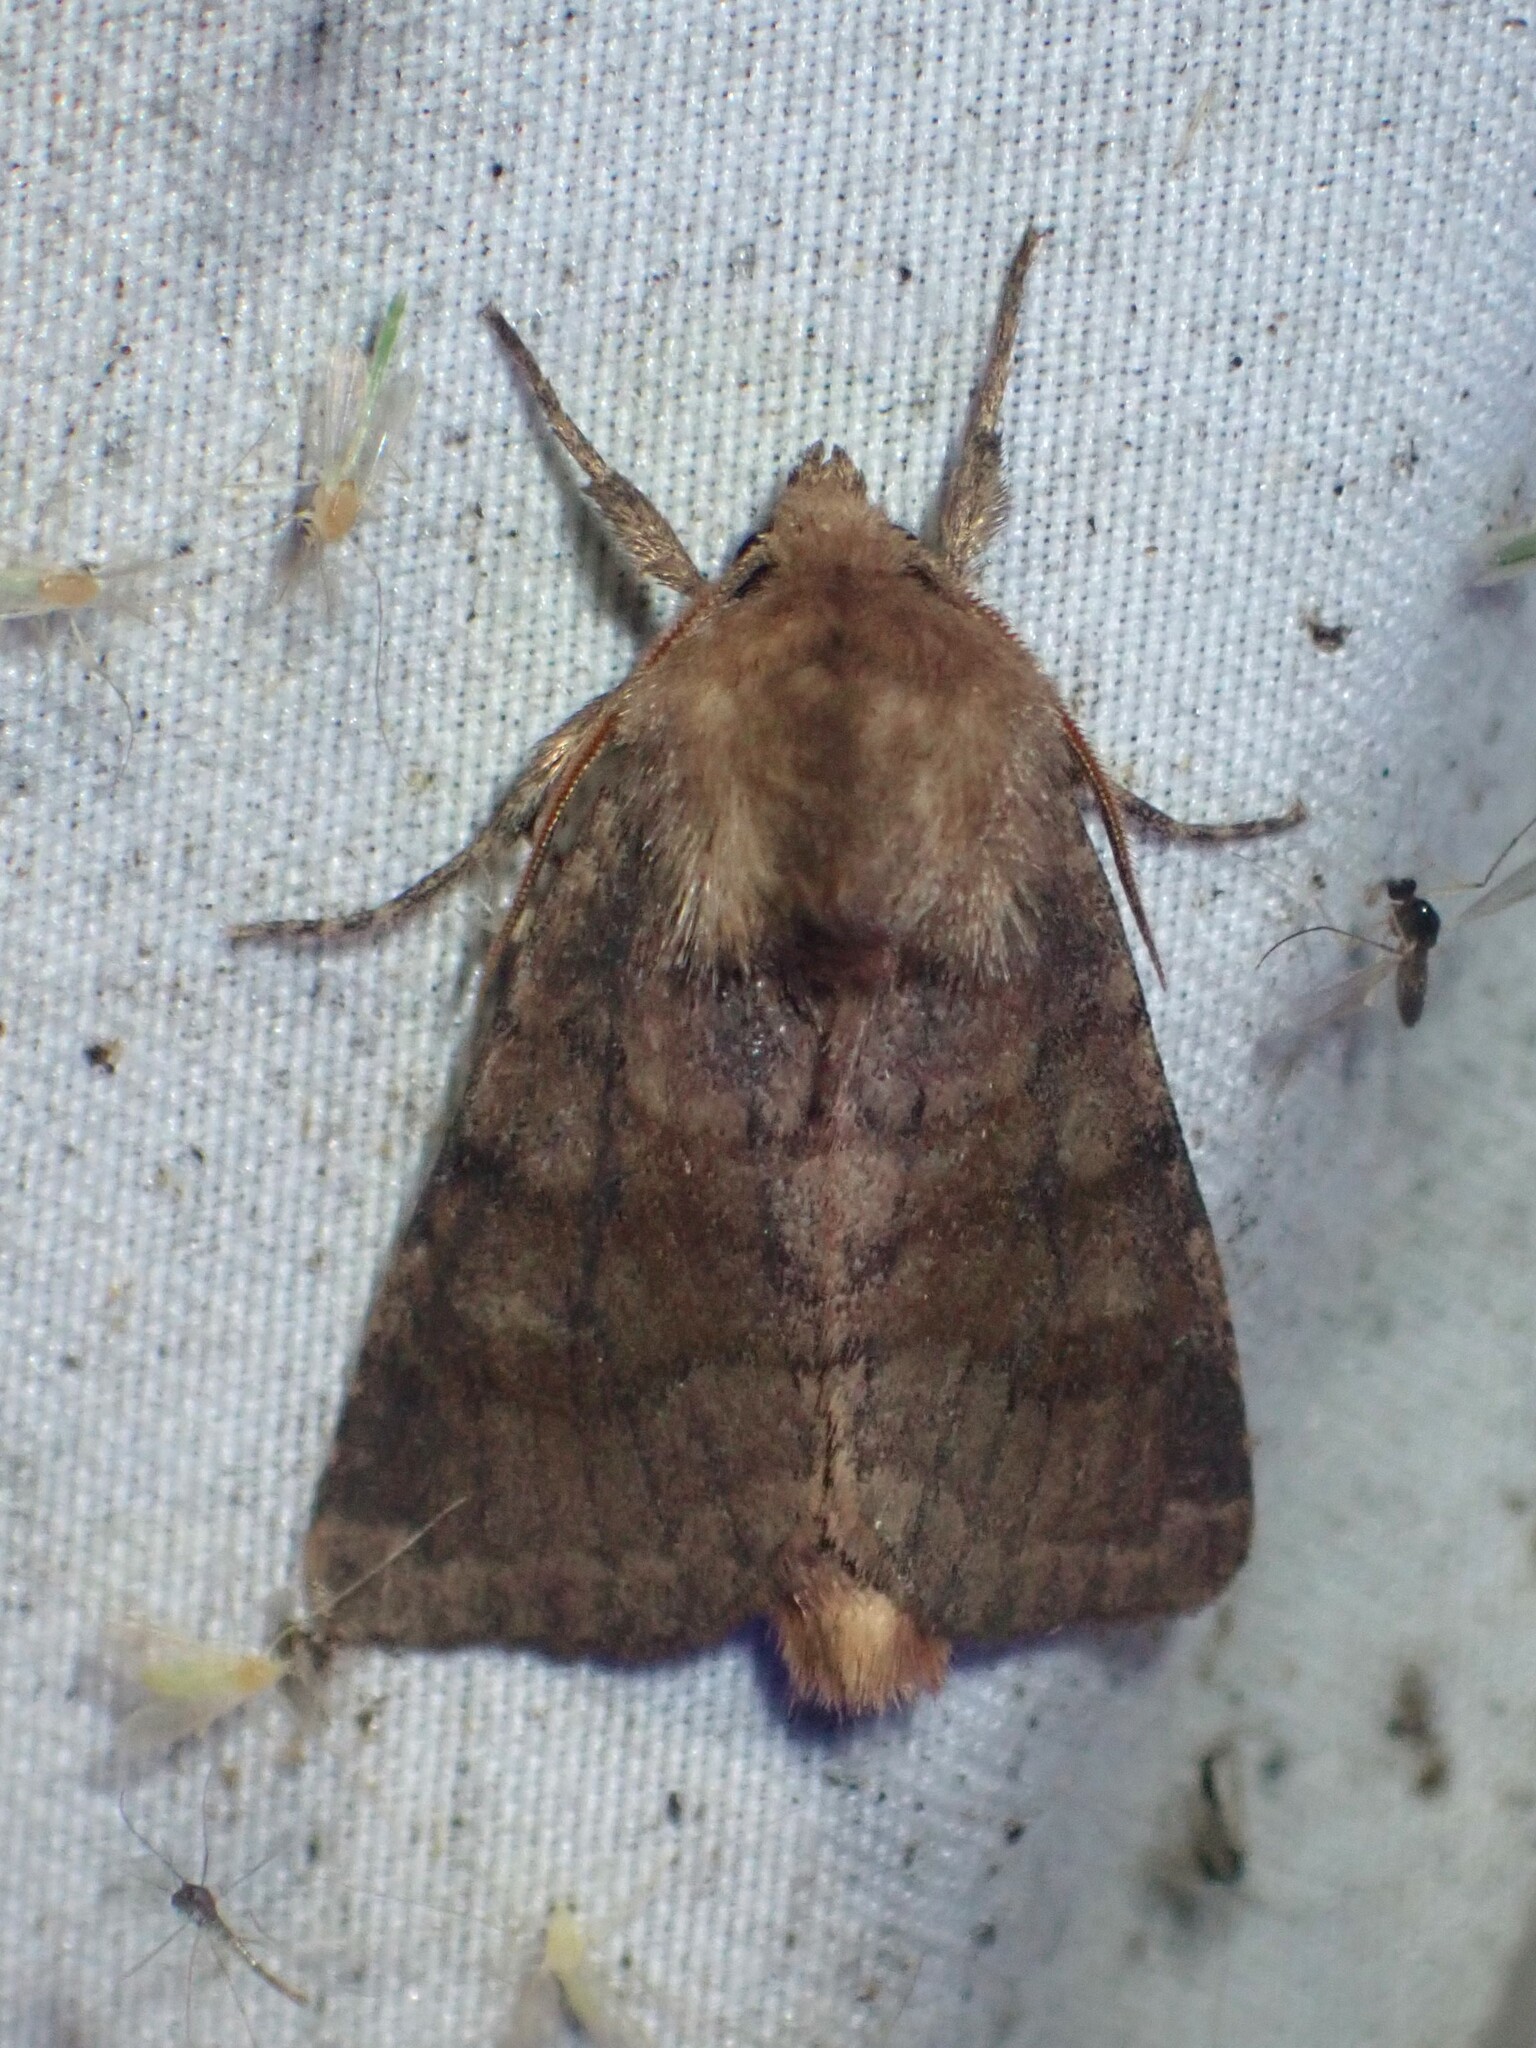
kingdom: Animalia
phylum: Arthropoda
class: Insecta
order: Lepidoptera
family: Noctuidae
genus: Nephelodes
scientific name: Nephelodes minians
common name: Bronzed cutworm
